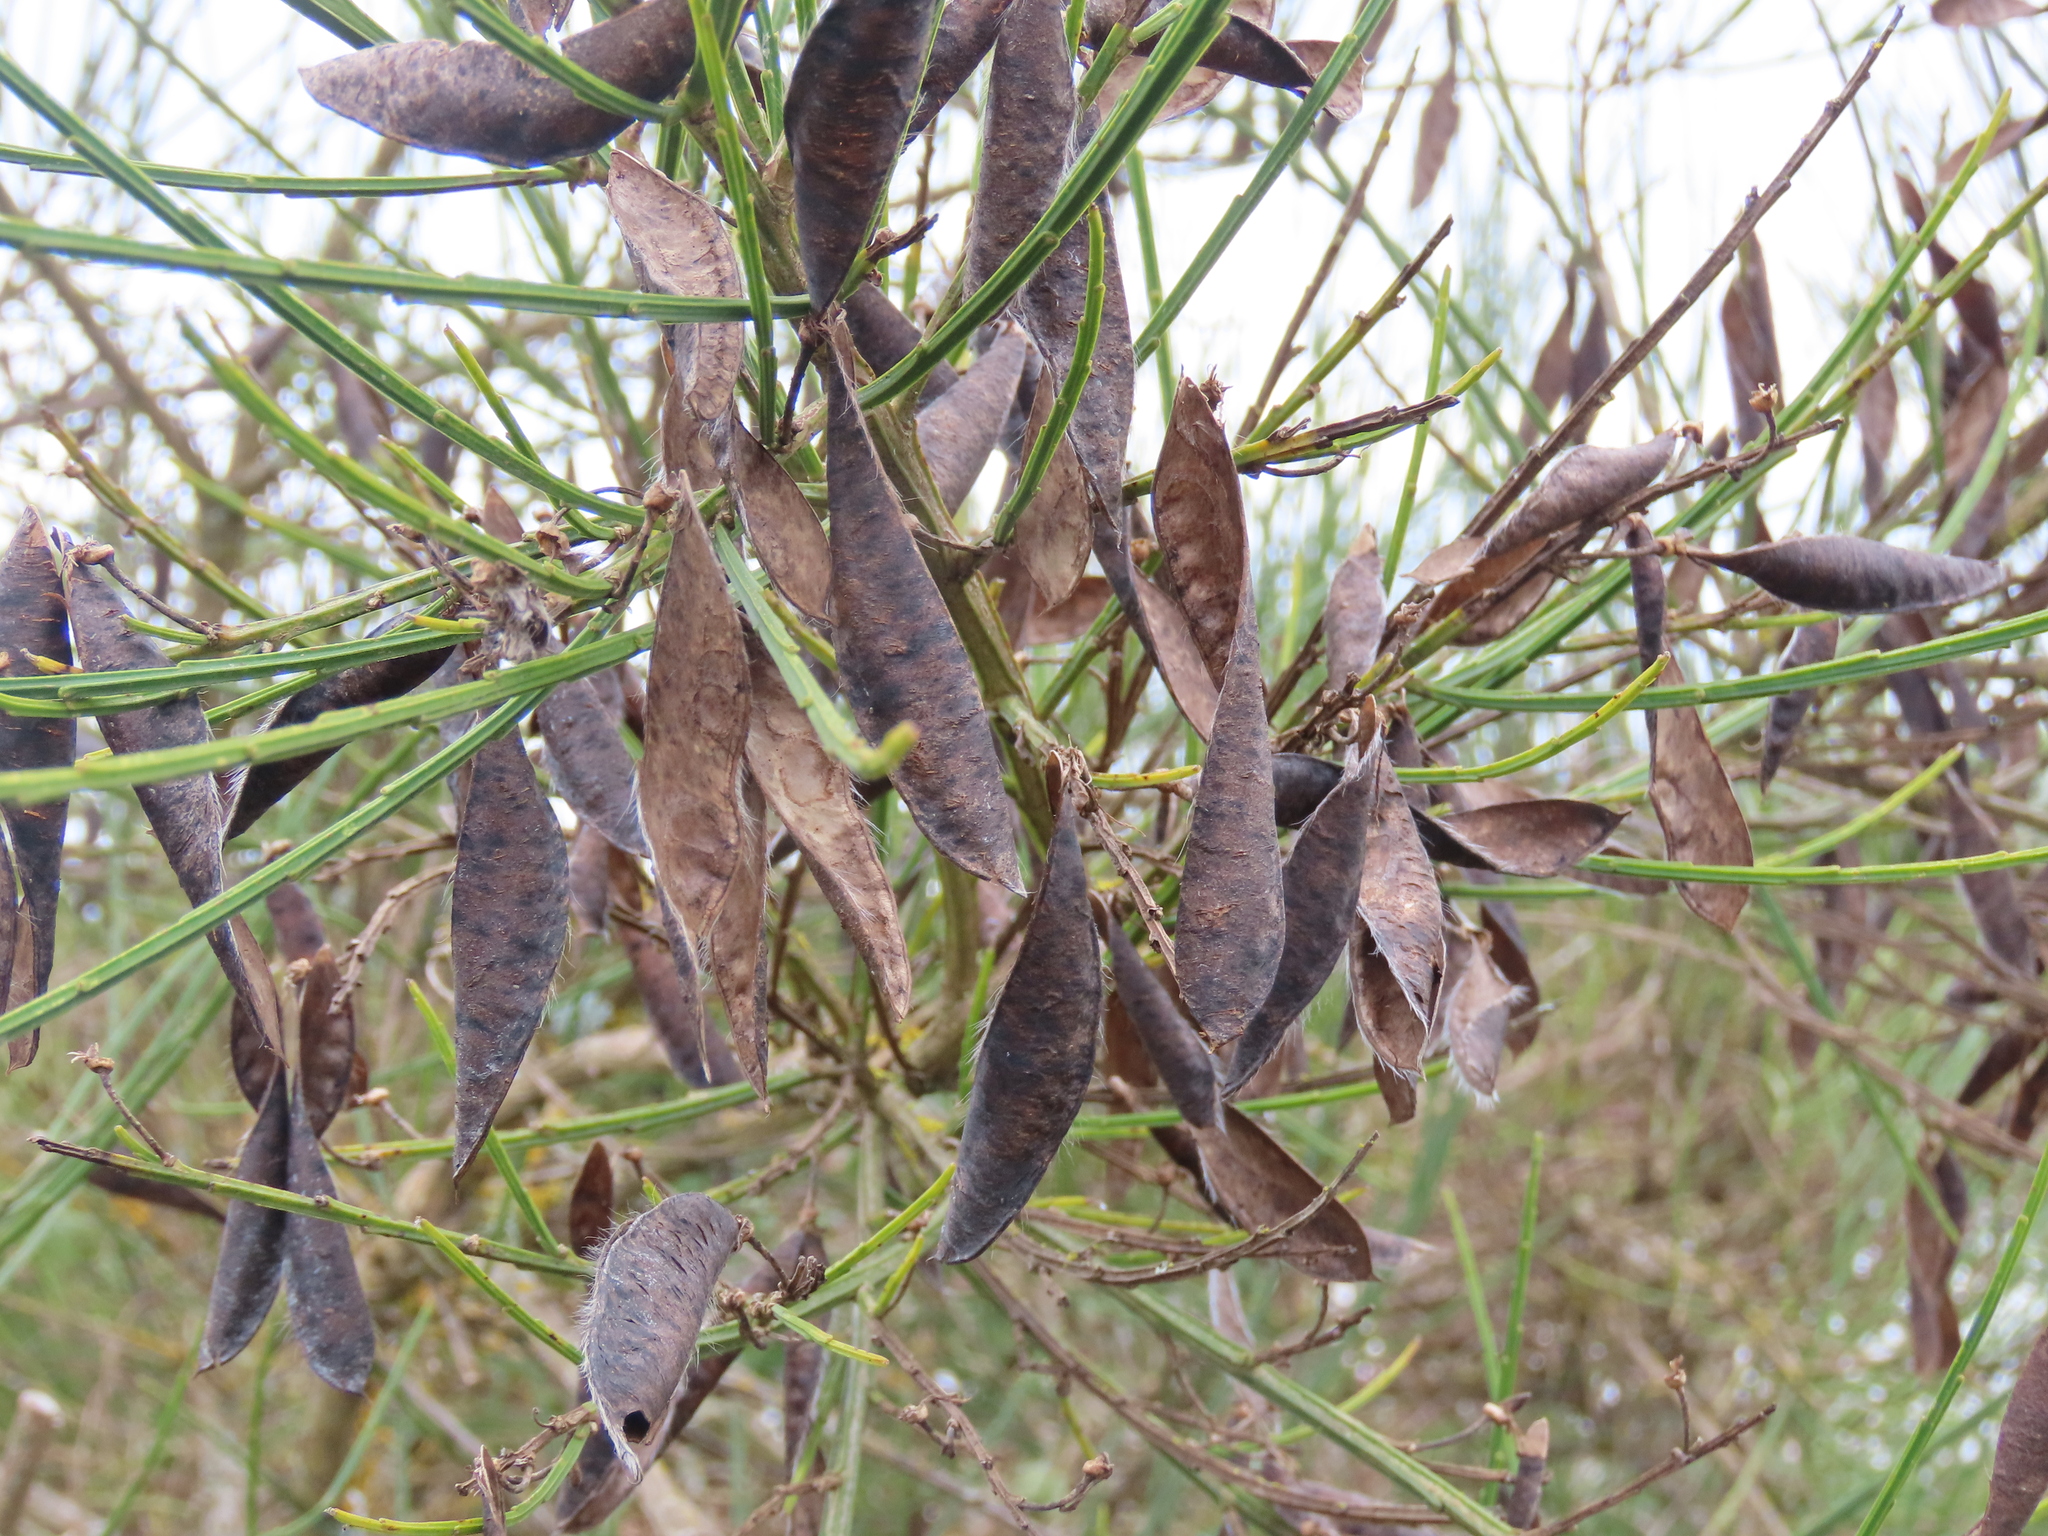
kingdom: Plantae
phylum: Tracheophyta
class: Magnoliopsida
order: Fabales
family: Fabaceae
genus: Cytisus
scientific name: Cytisus scoparius
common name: Scotch broom
